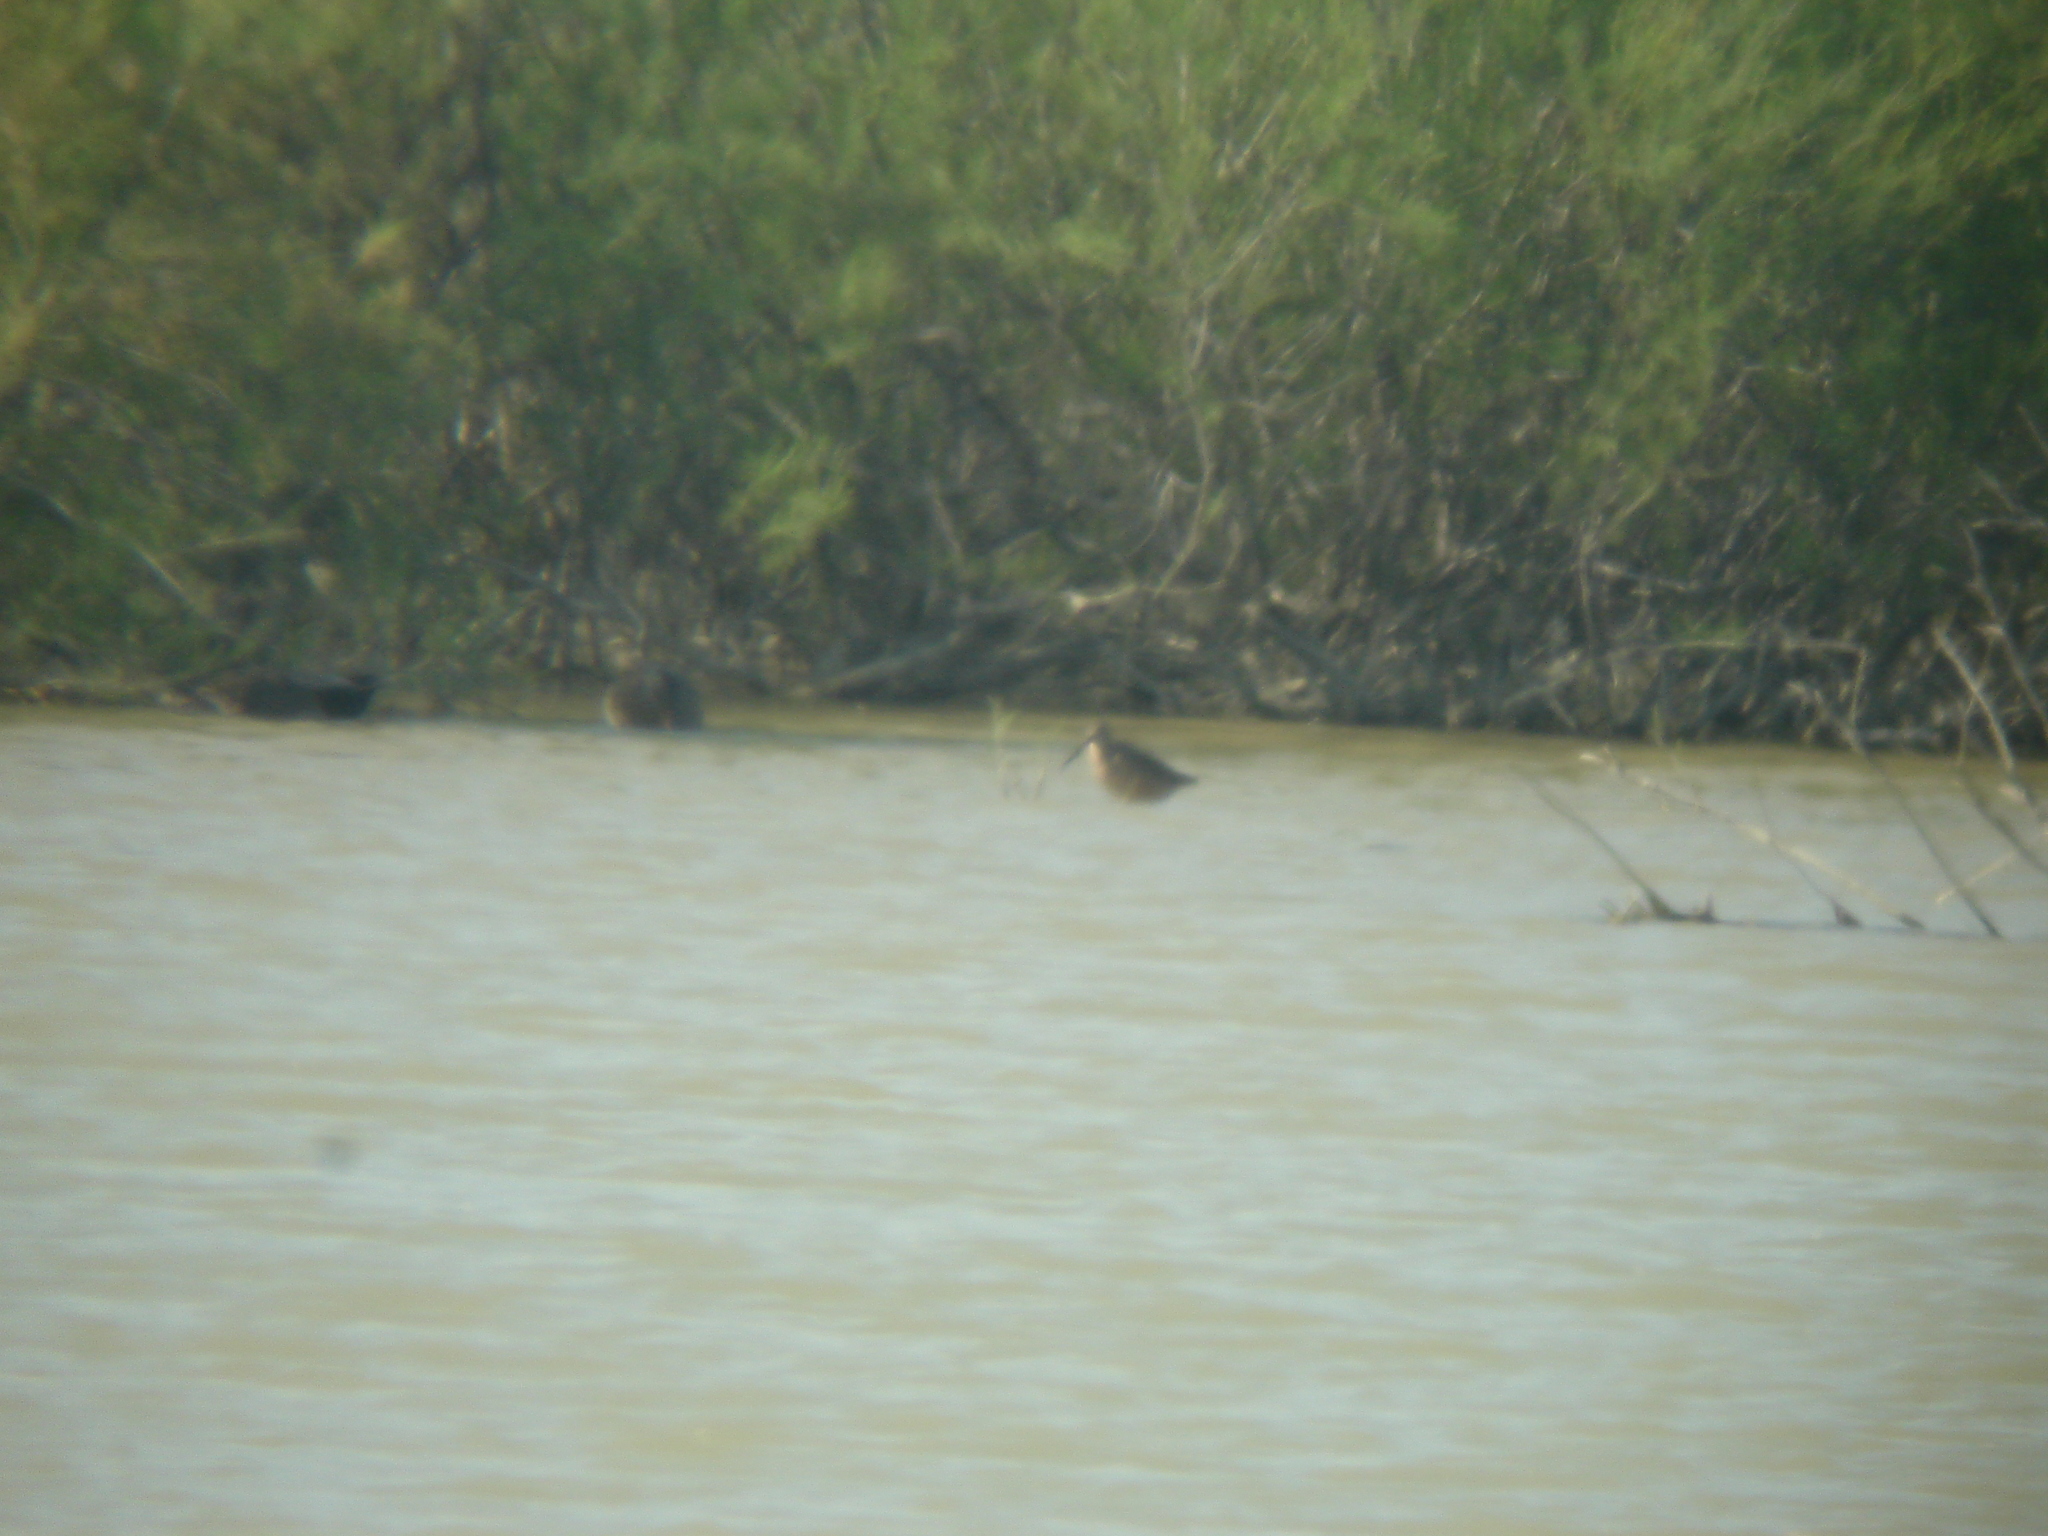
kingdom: Animalia
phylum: Chordata
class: Aves
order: Charadriiformes
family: Scolopacidae
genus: Limnodromus
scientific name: Limnodromus scolopaceus
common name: Long-billed dowitcher
